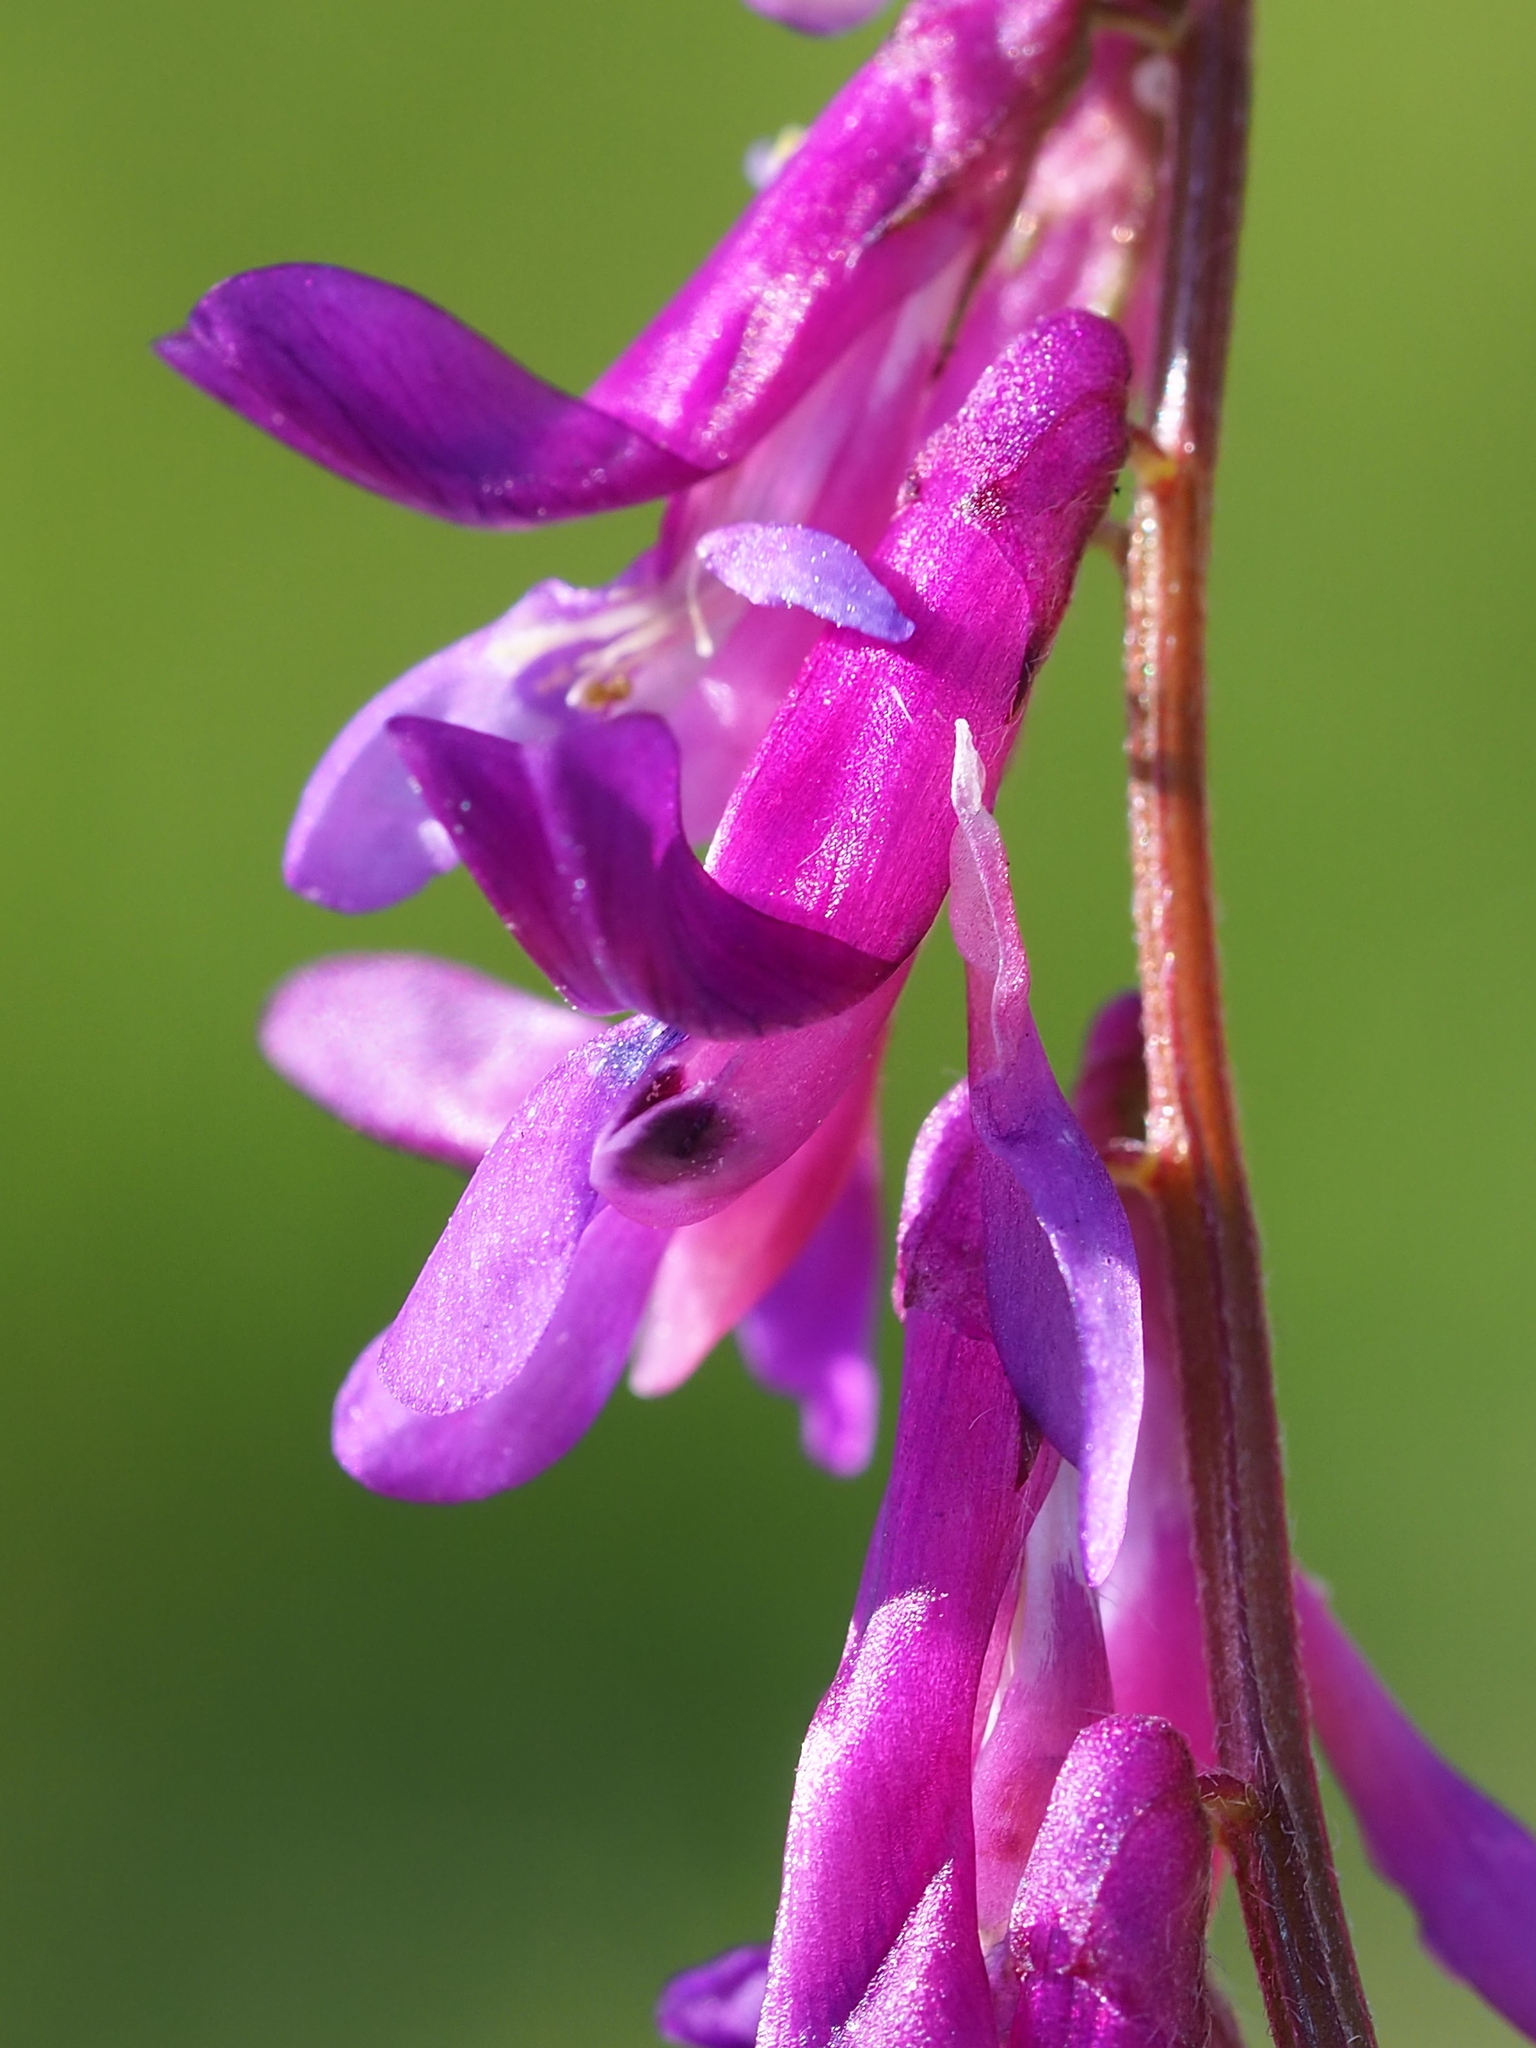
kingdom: Plantae
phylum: Tracheophyta
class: Magnoliopsida
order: Fabales
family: Fabaceae
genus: Vicia
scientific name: Vicia villosa
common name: Fodder vetch
